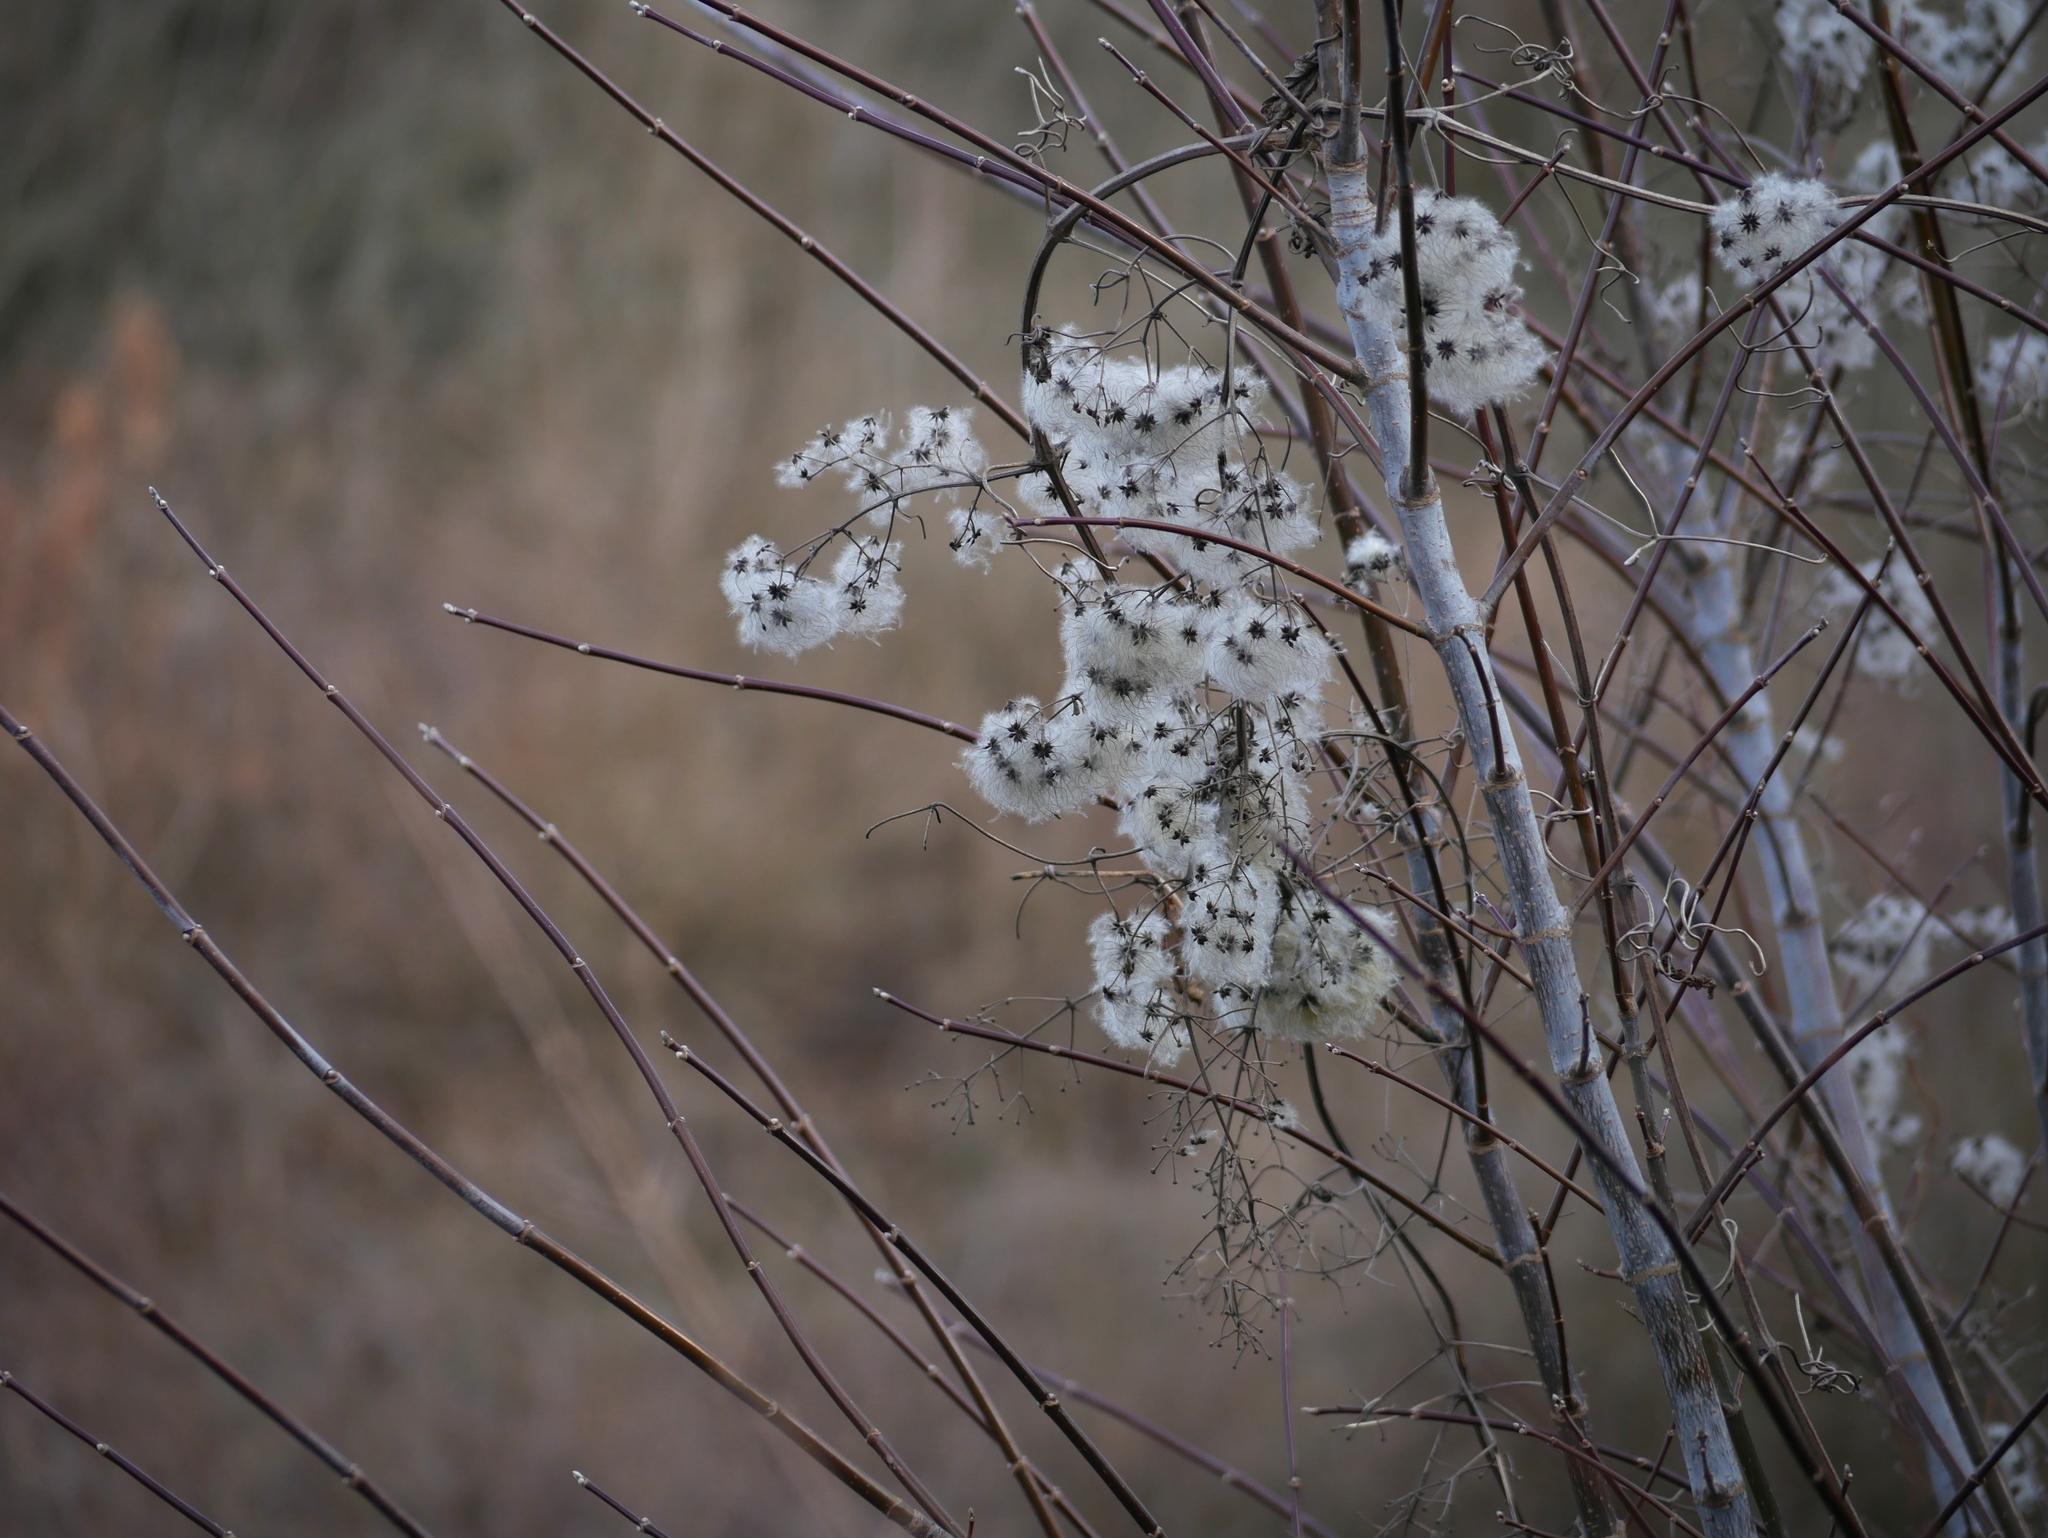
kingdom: Plantae
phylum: Tracheophyta
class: Magnoliopsida
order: Ranunculales
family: Ranunculaceae
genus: Clematis
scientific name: Clematis vitalba
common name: Evergreen clematis
